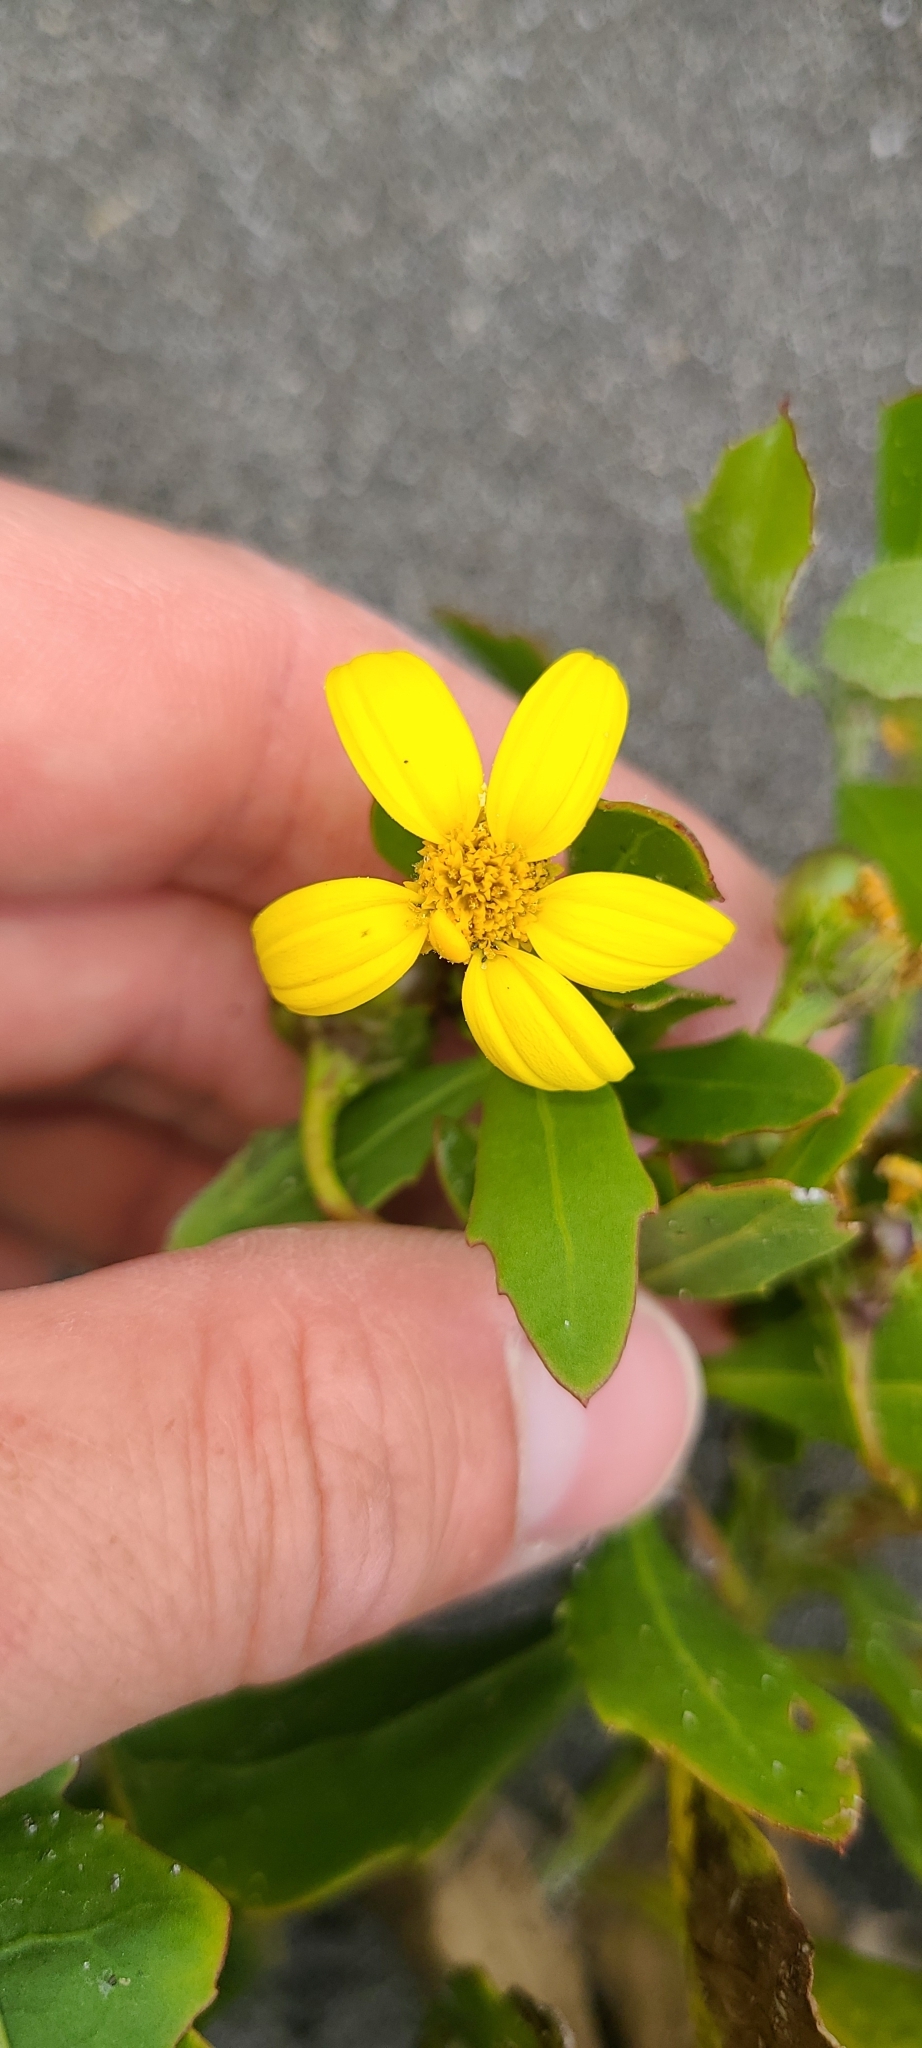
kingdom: Plantae
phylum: Tracheophyta
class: Magnoliopsida
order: Asterales
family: Asteraceae
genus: Osteospermum
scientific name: Osteospermum moniliferum
